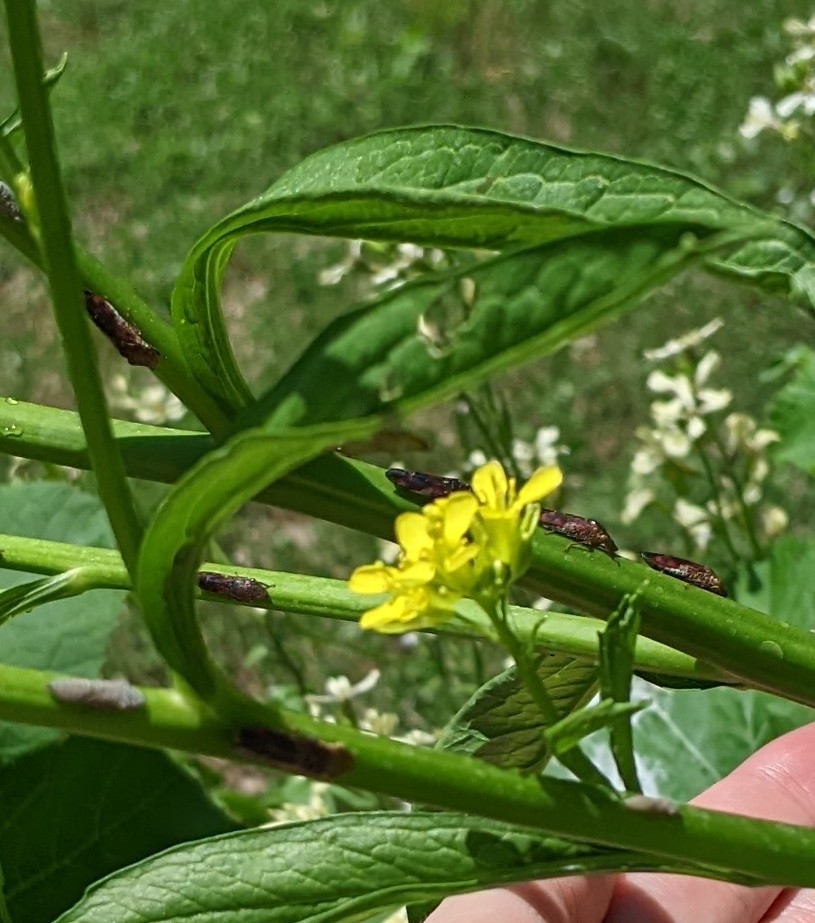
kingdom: Animalia
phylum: Arthropoda
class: Insecta
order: Hemiptera
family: Cicadellidae
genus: Homalodisca
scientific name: Homalodisca vitripennis
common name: Glassy-winged sharpshooter
